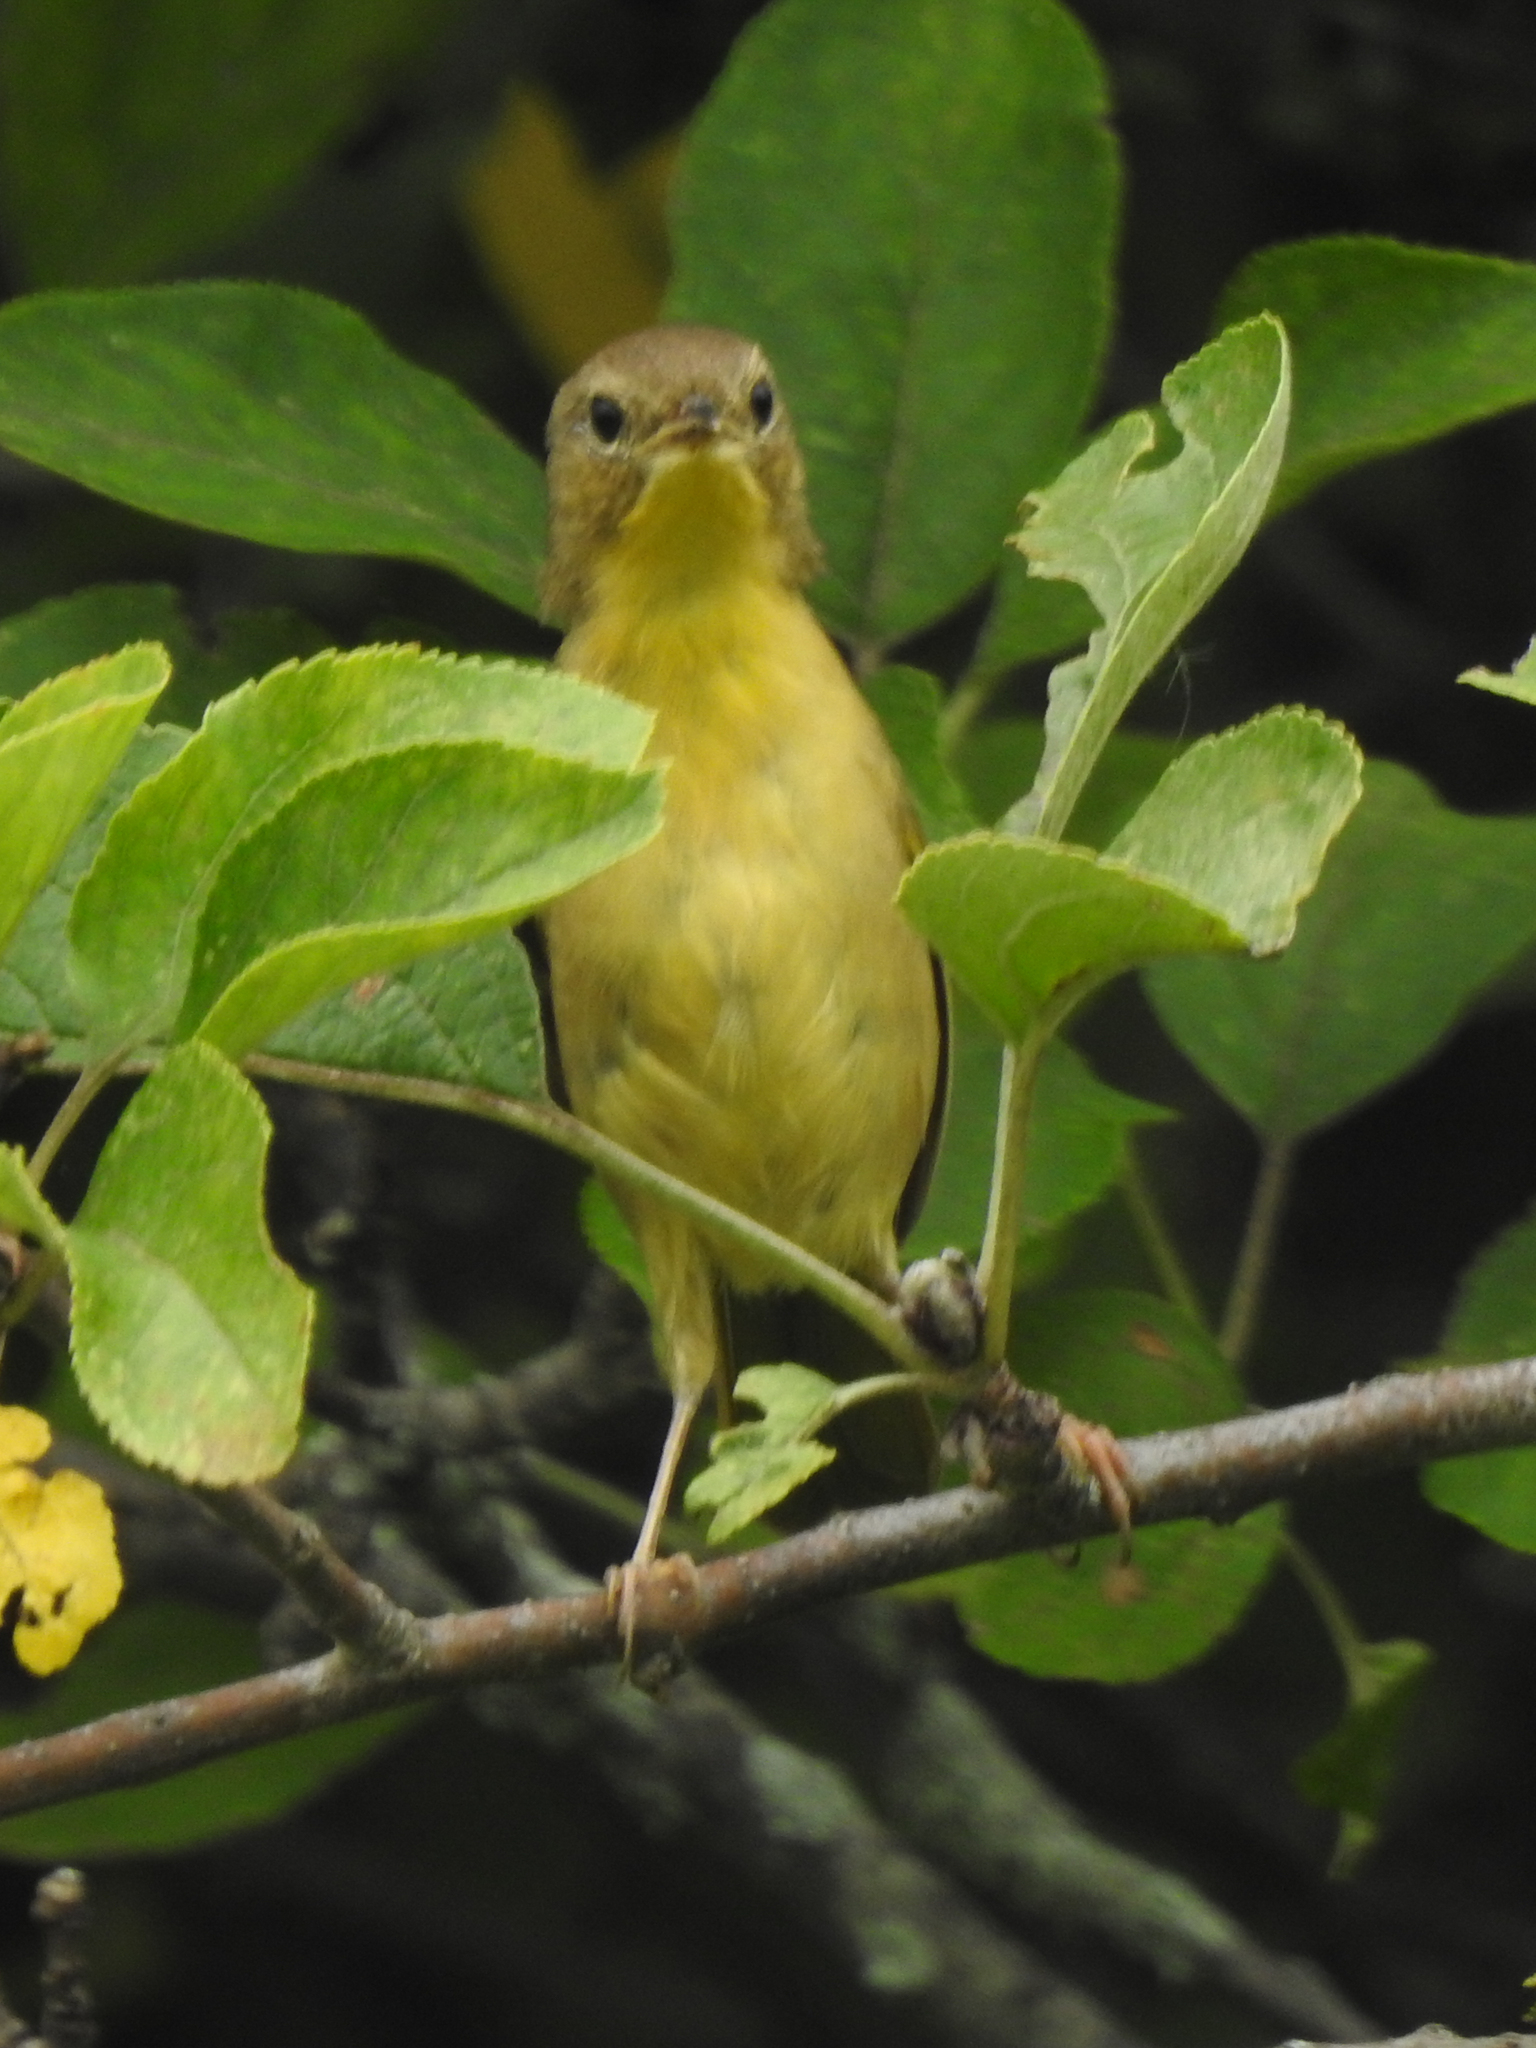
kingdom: Animalia
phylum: Chordata
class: Aves
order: Passeriformes
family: Parulidae
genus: Geothlypis
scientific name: Geothlypis trichas
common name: Common yellowthroat
